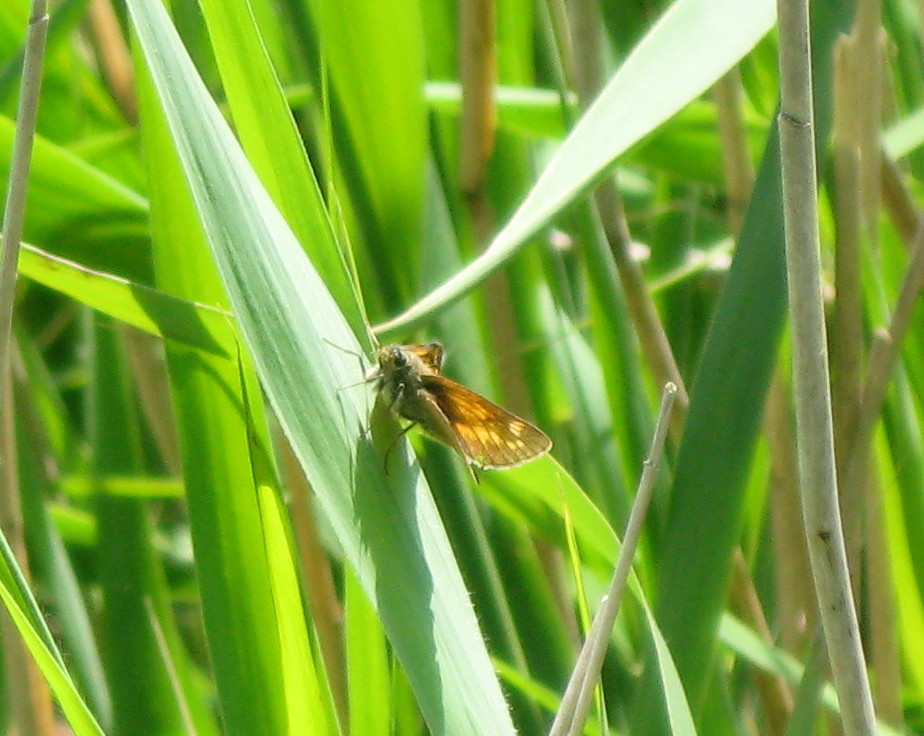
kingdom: Animalia
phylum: Arthropoda
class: Insecta
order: Lepidoptera
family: Hesperiidae
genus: Ochlodes
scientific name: Ochlodes venata
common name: Large skipper
